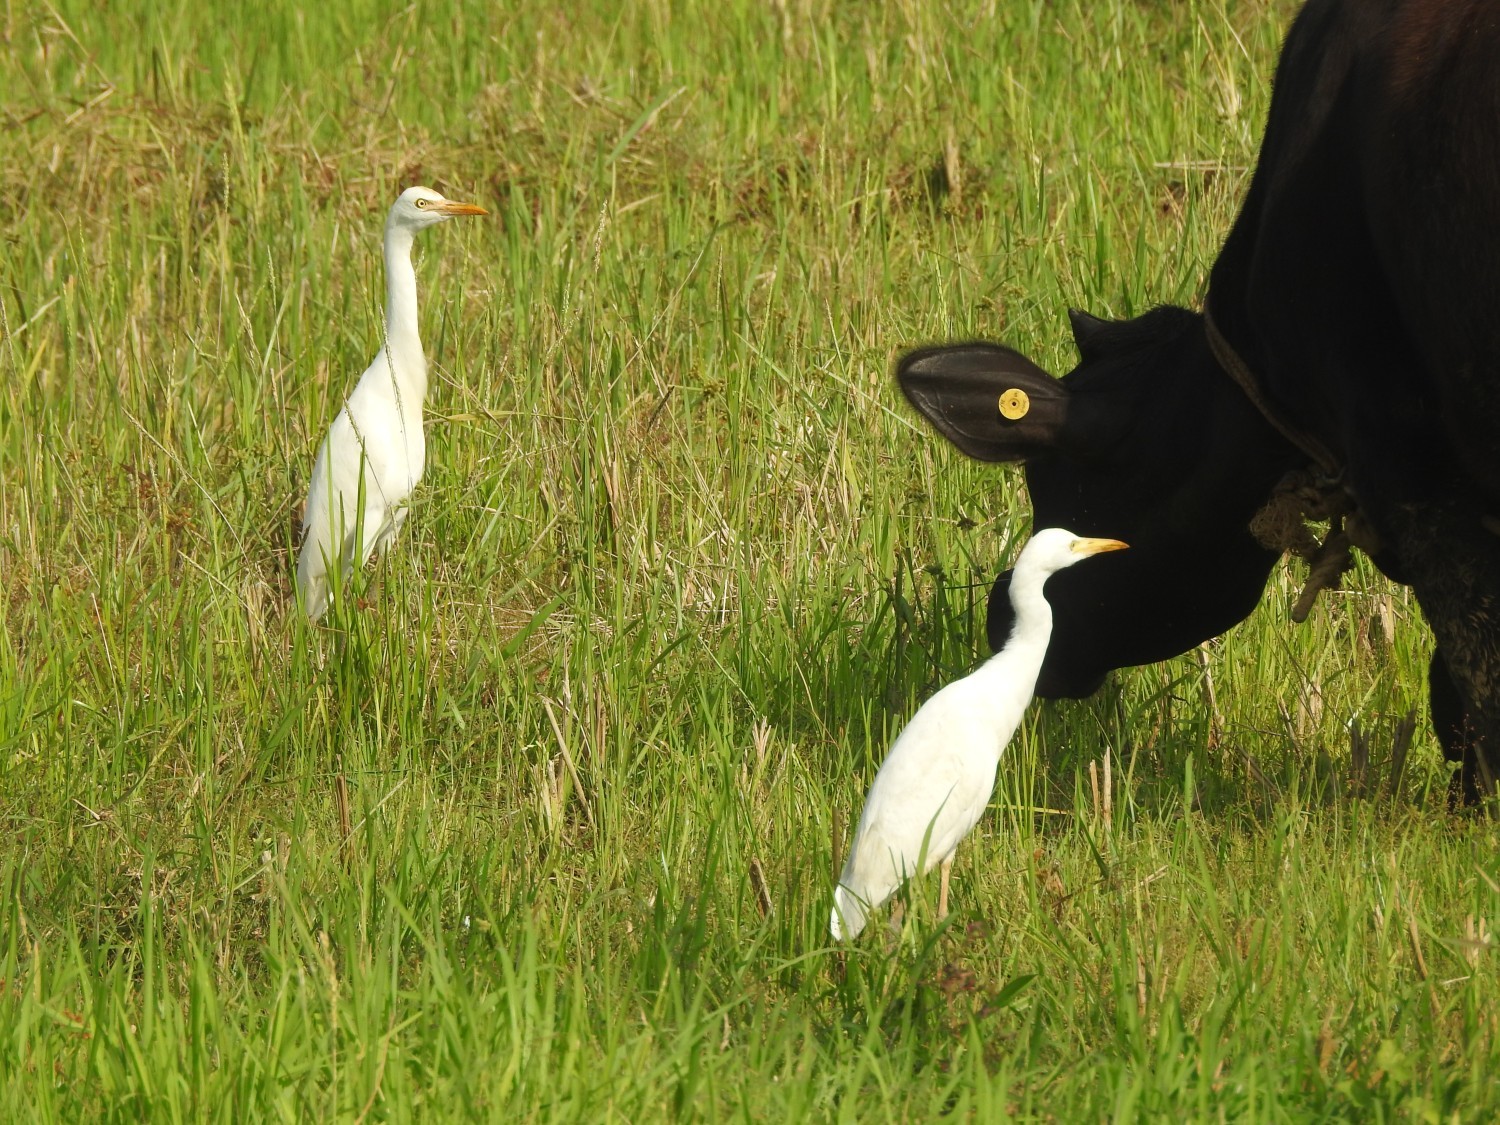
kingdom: Animalia
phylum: Chordata
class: Aves
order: Pelecaniformes
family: Ardeidae
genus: Bubulcus
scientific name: Bubulcus coromandus
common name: Eastern cattle egret
